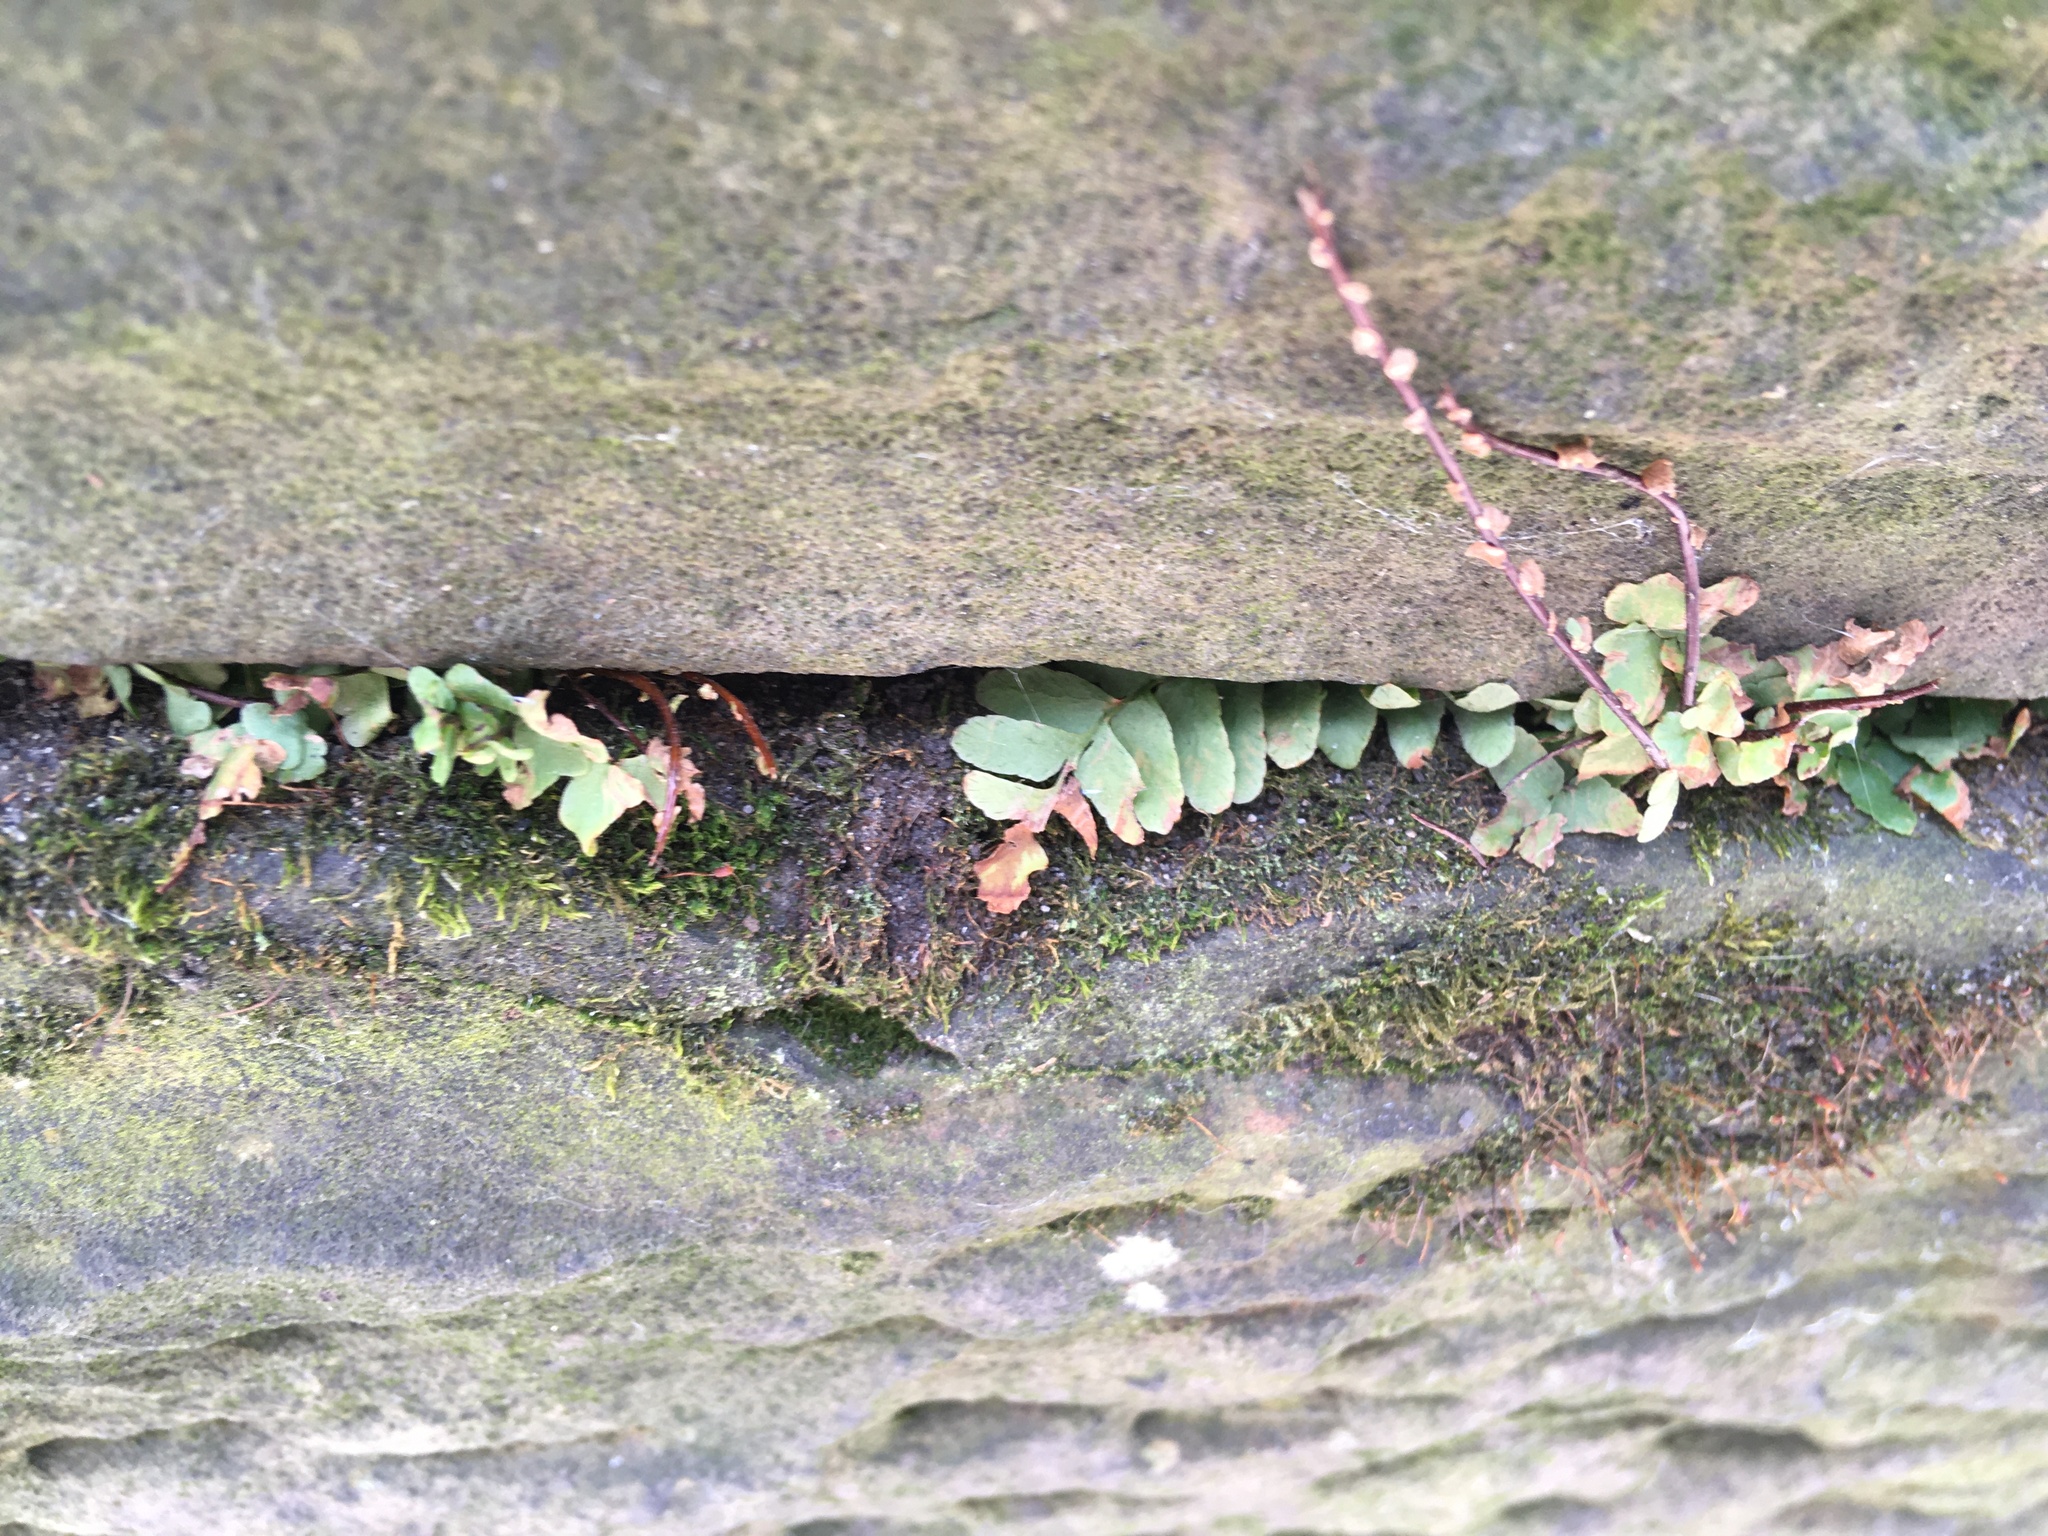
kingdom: Plantae
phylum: Tracheophyta
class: Polypodiopsida
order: Polypodiales
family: Aspleniaceae
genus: Asplenium
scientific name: Asplenium platyneuron
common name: Ebony spleenwort
